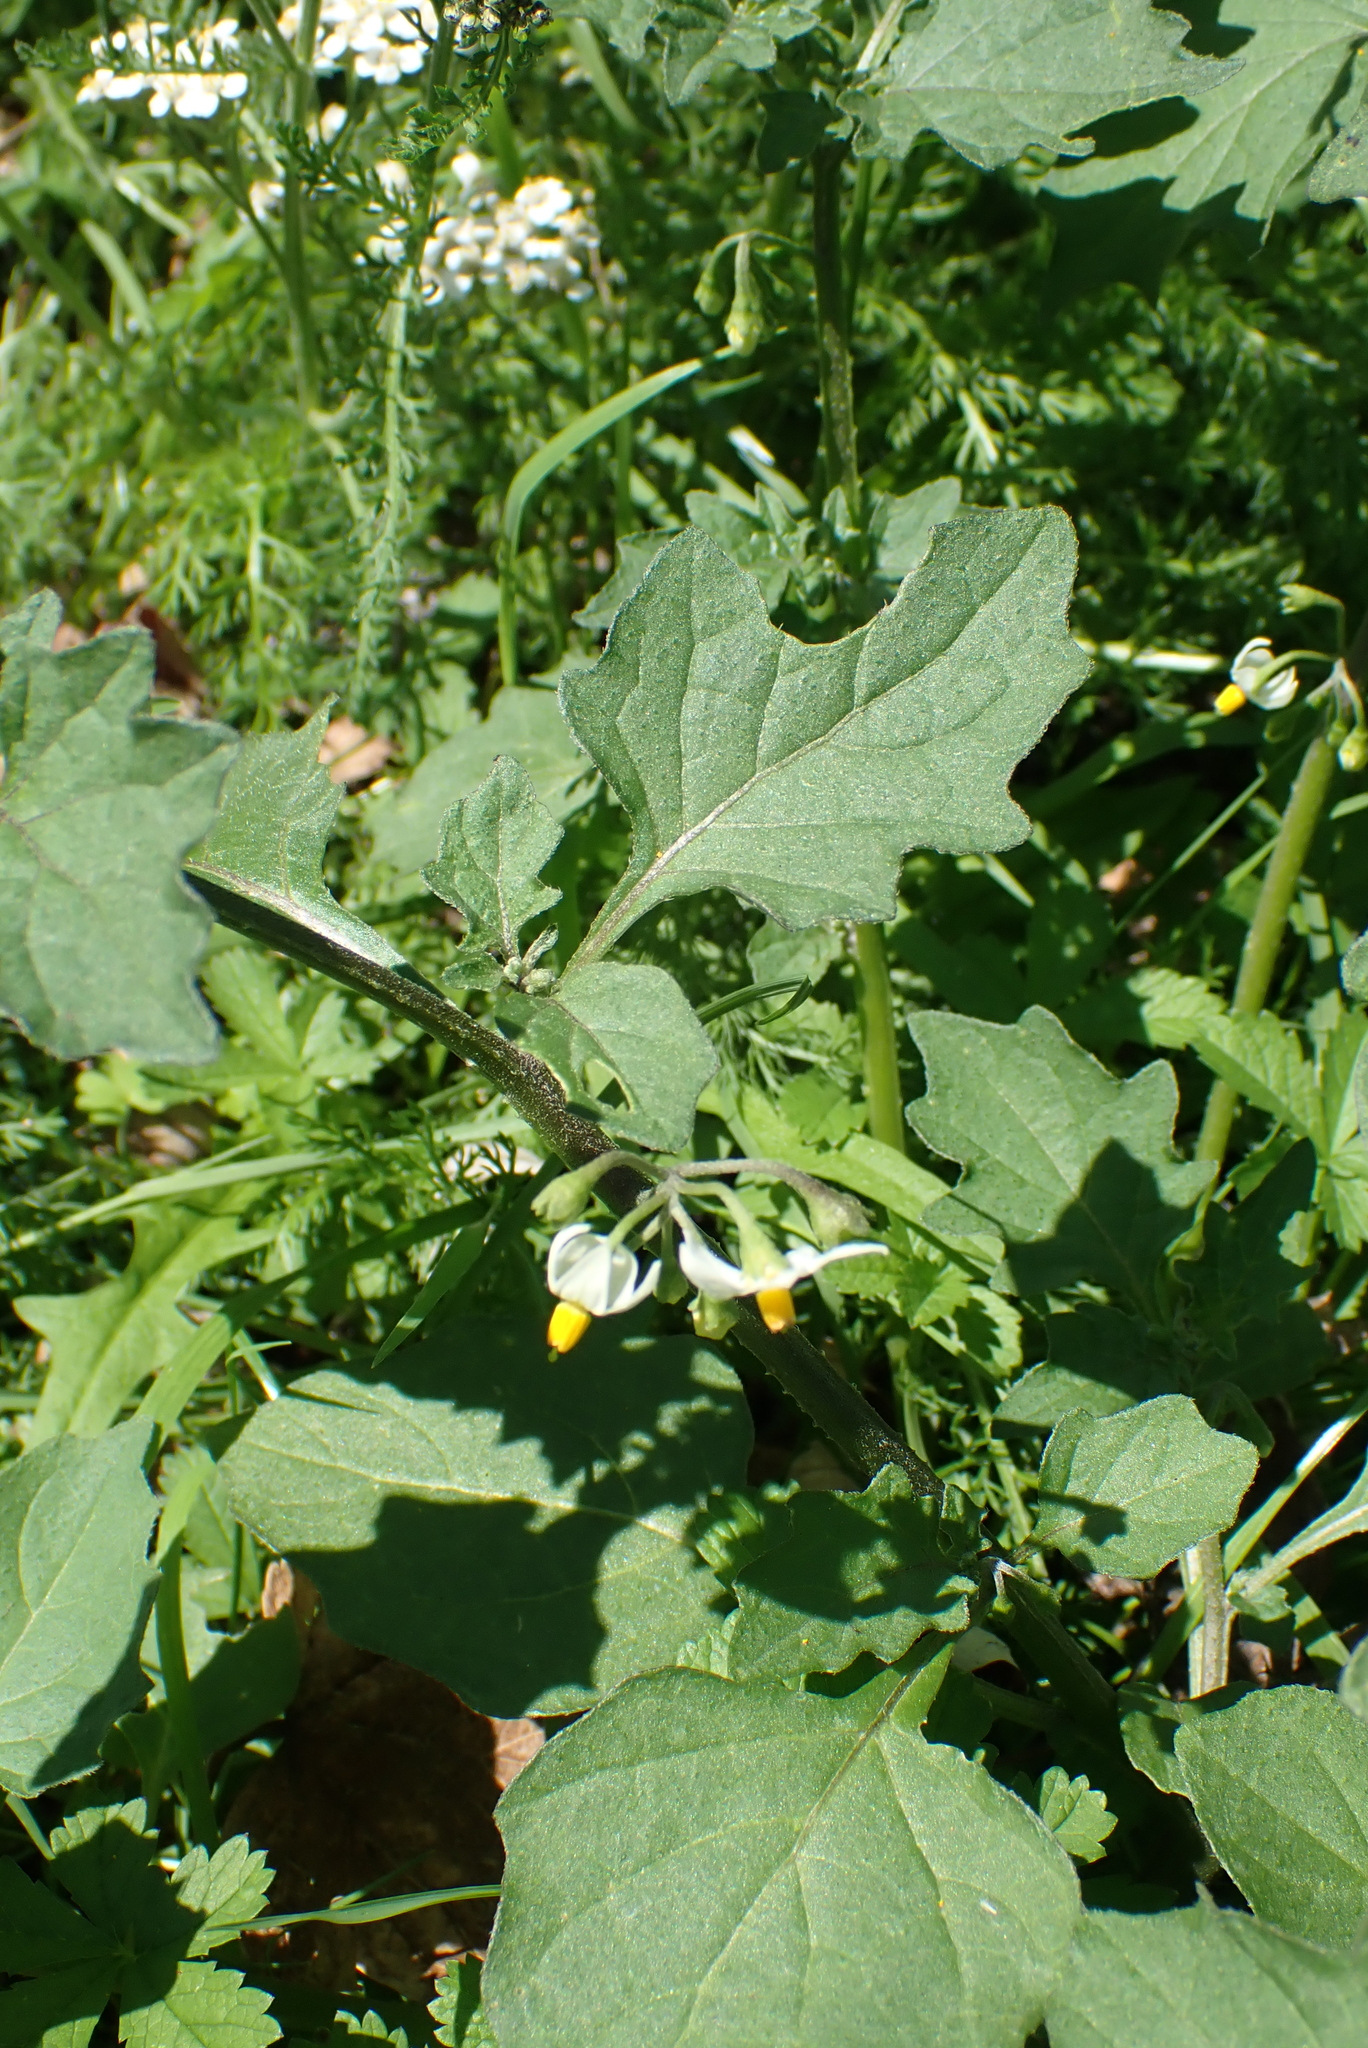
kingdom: Plantae
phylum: Tracheophyta
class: Magnoliopsida
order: Solanales
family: Solanaceae
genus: Solanum
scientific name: Solanum nigrum
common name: Black nightshade
